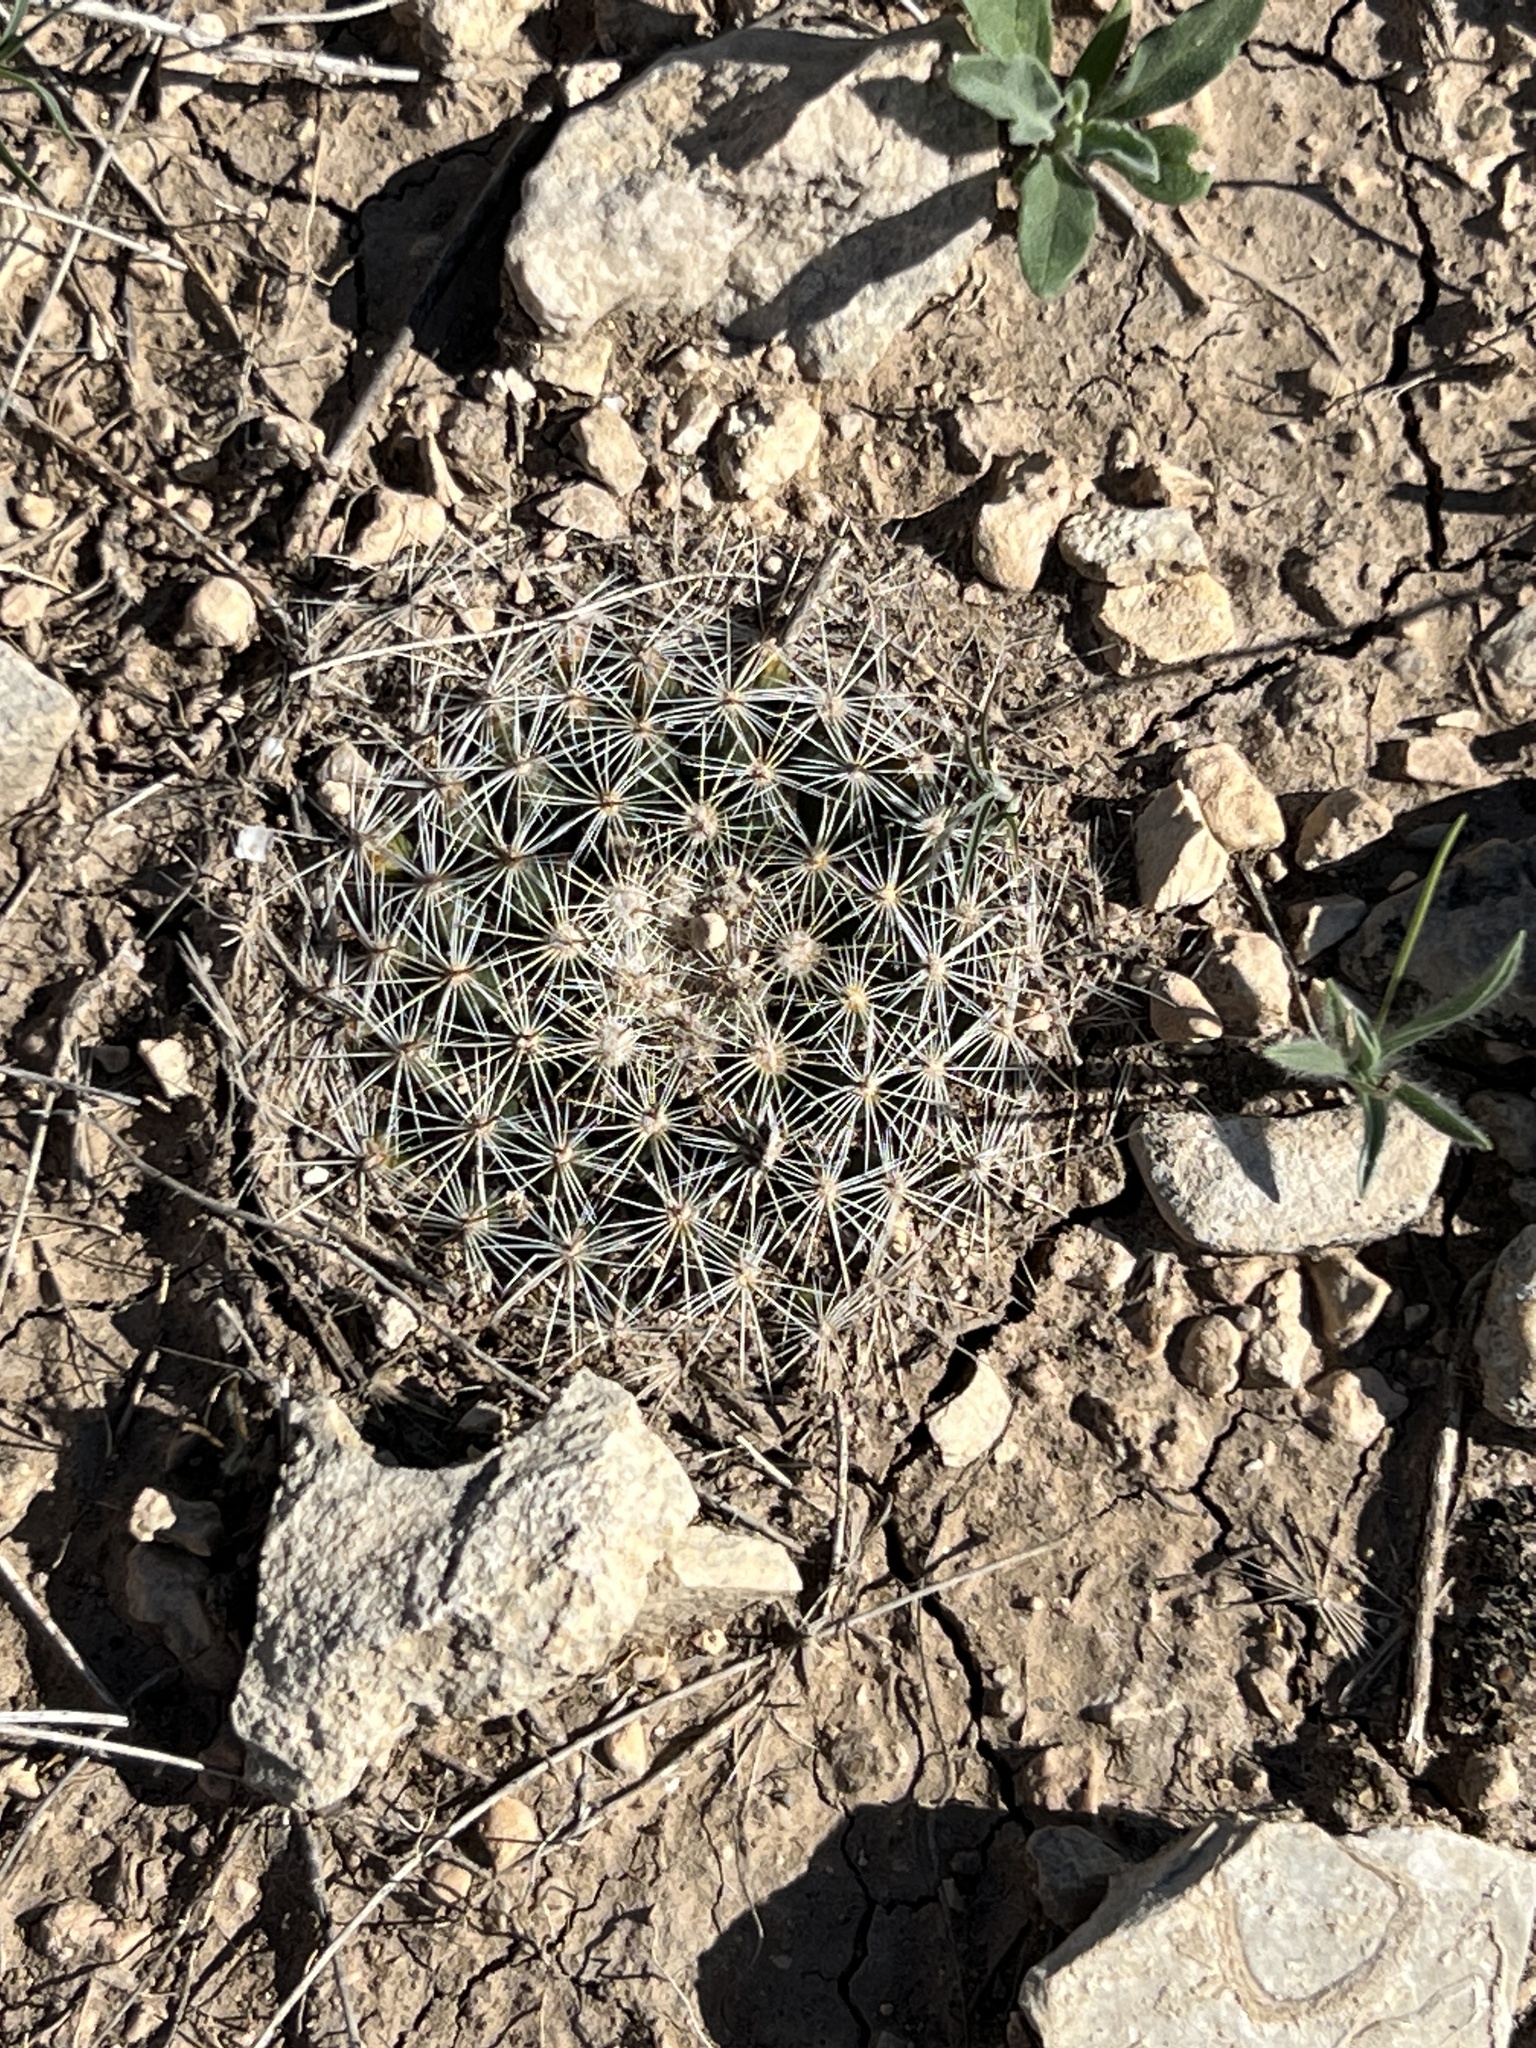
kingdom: Plantae
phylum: Tracheophyta
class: Magnoliopsida
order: Caryophyllales
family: Cactaceae
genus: Mammillaria
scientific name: Mammillaria heyderi
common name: Little nipple cactus
